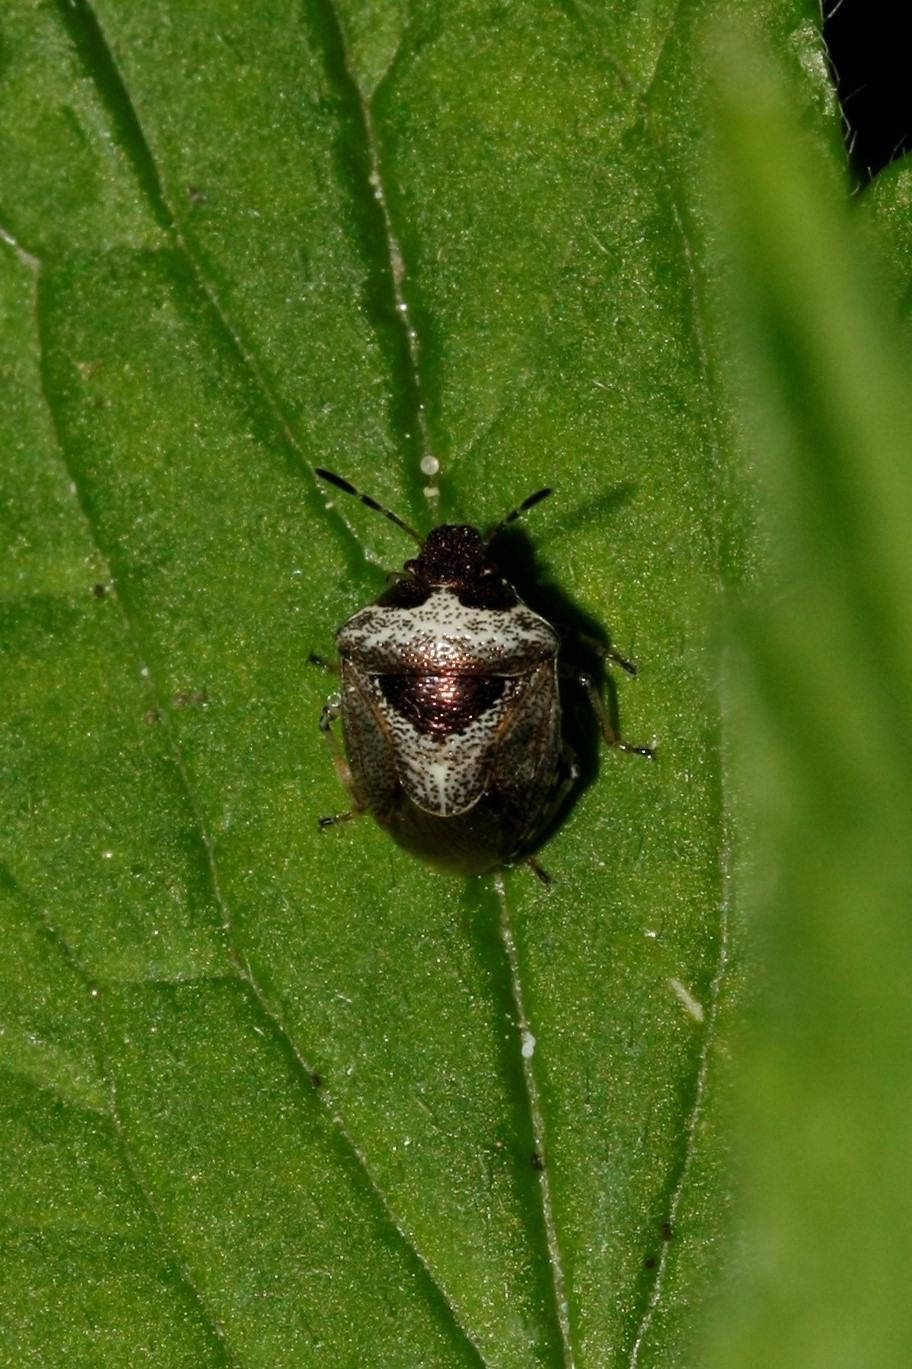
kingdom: Animalia
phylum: Arthropoda
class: Insecta
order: Hemiptera
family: Pentatomidae
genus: Eysarcoris
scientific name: Eysarcoris venustissimus
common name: Woundwort shieldbug
